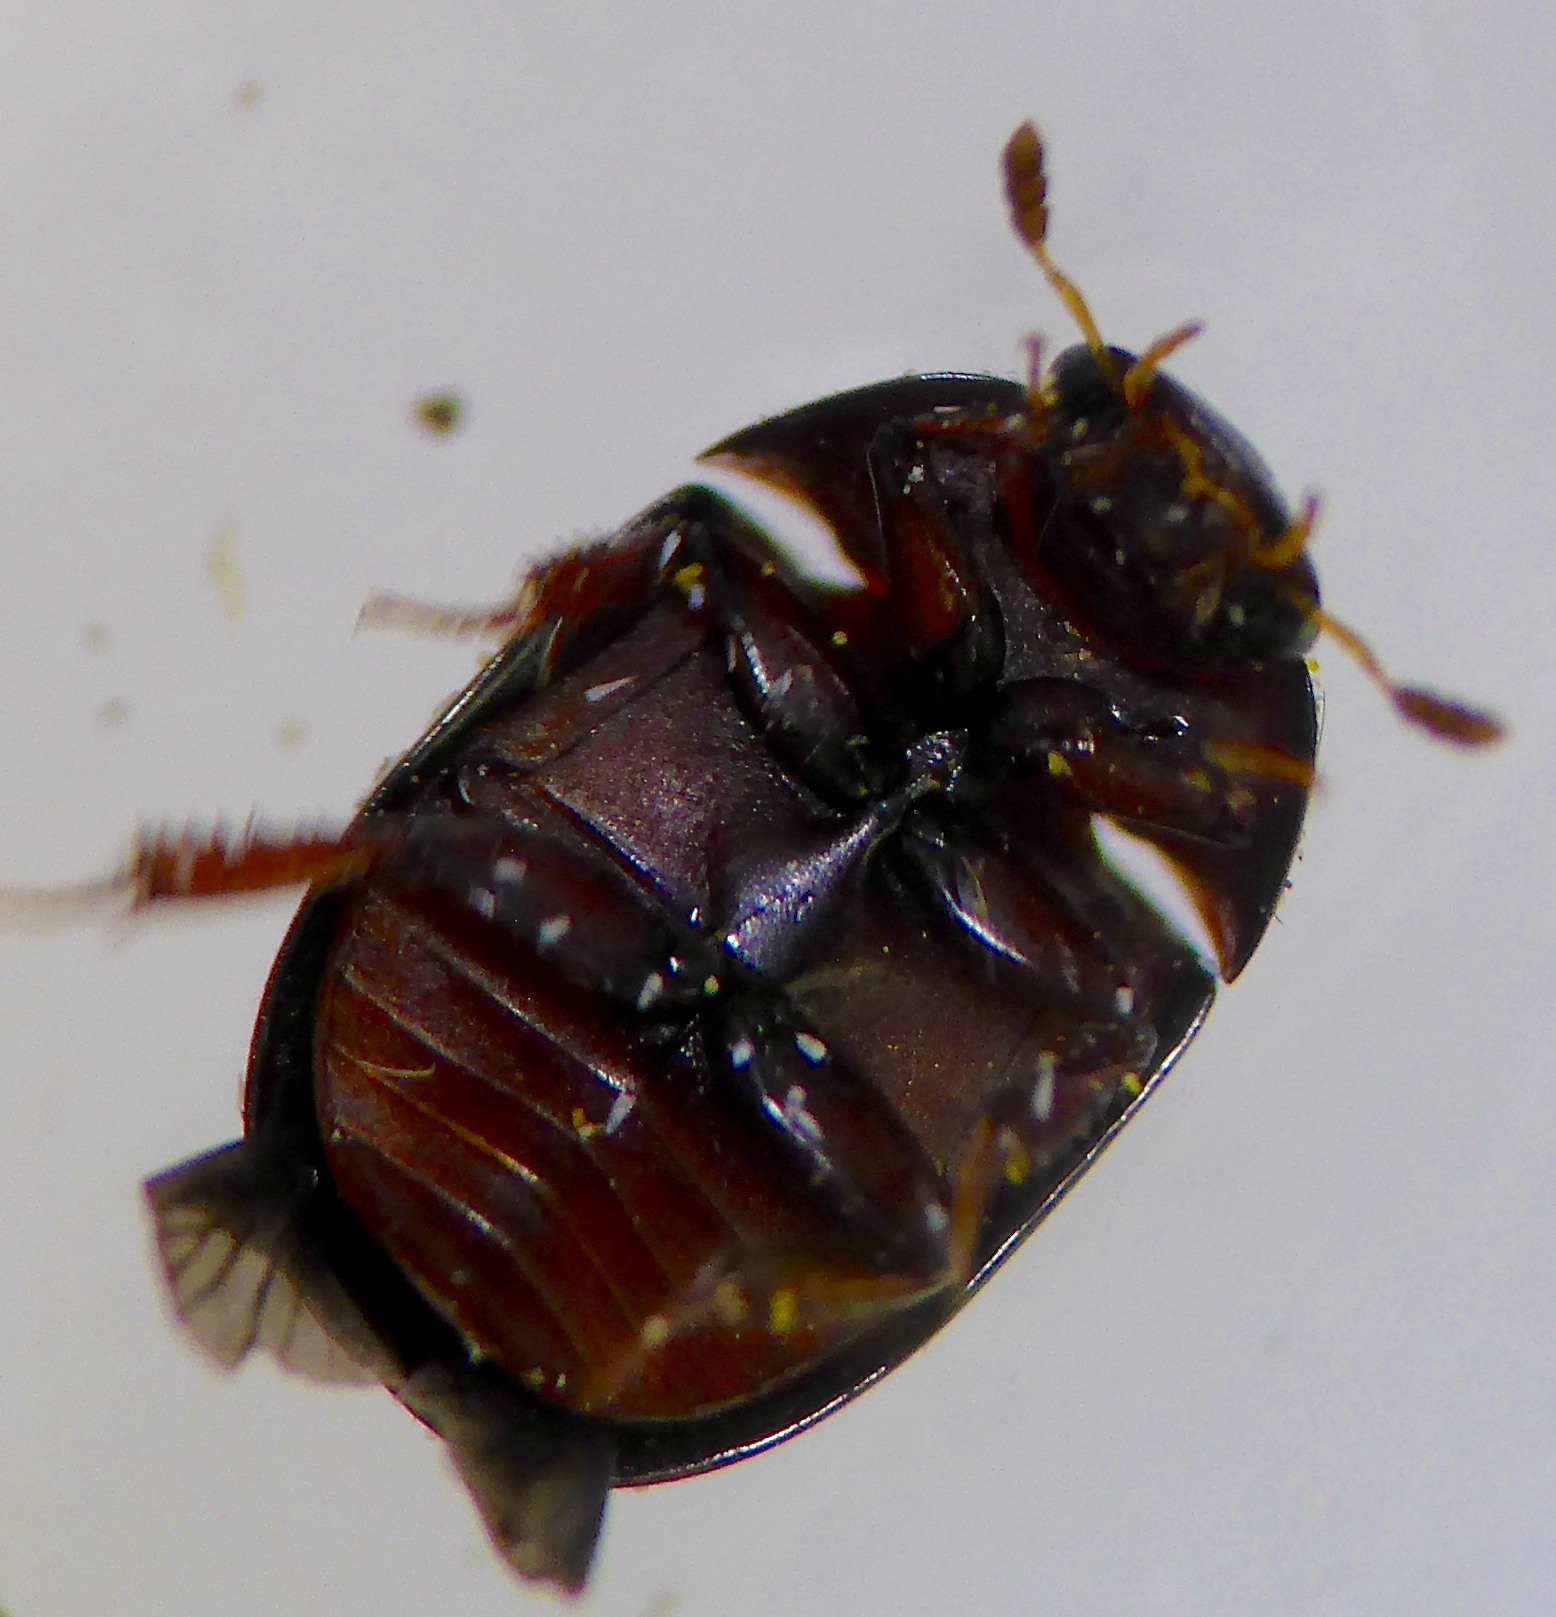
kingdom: Animalia
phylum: Arthropoda
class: Insecta
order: Coleoptera
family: Hydrophilidae
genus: Dactylosternum
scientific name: Dactylosternum abdominale
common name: Water scavenger beetle
